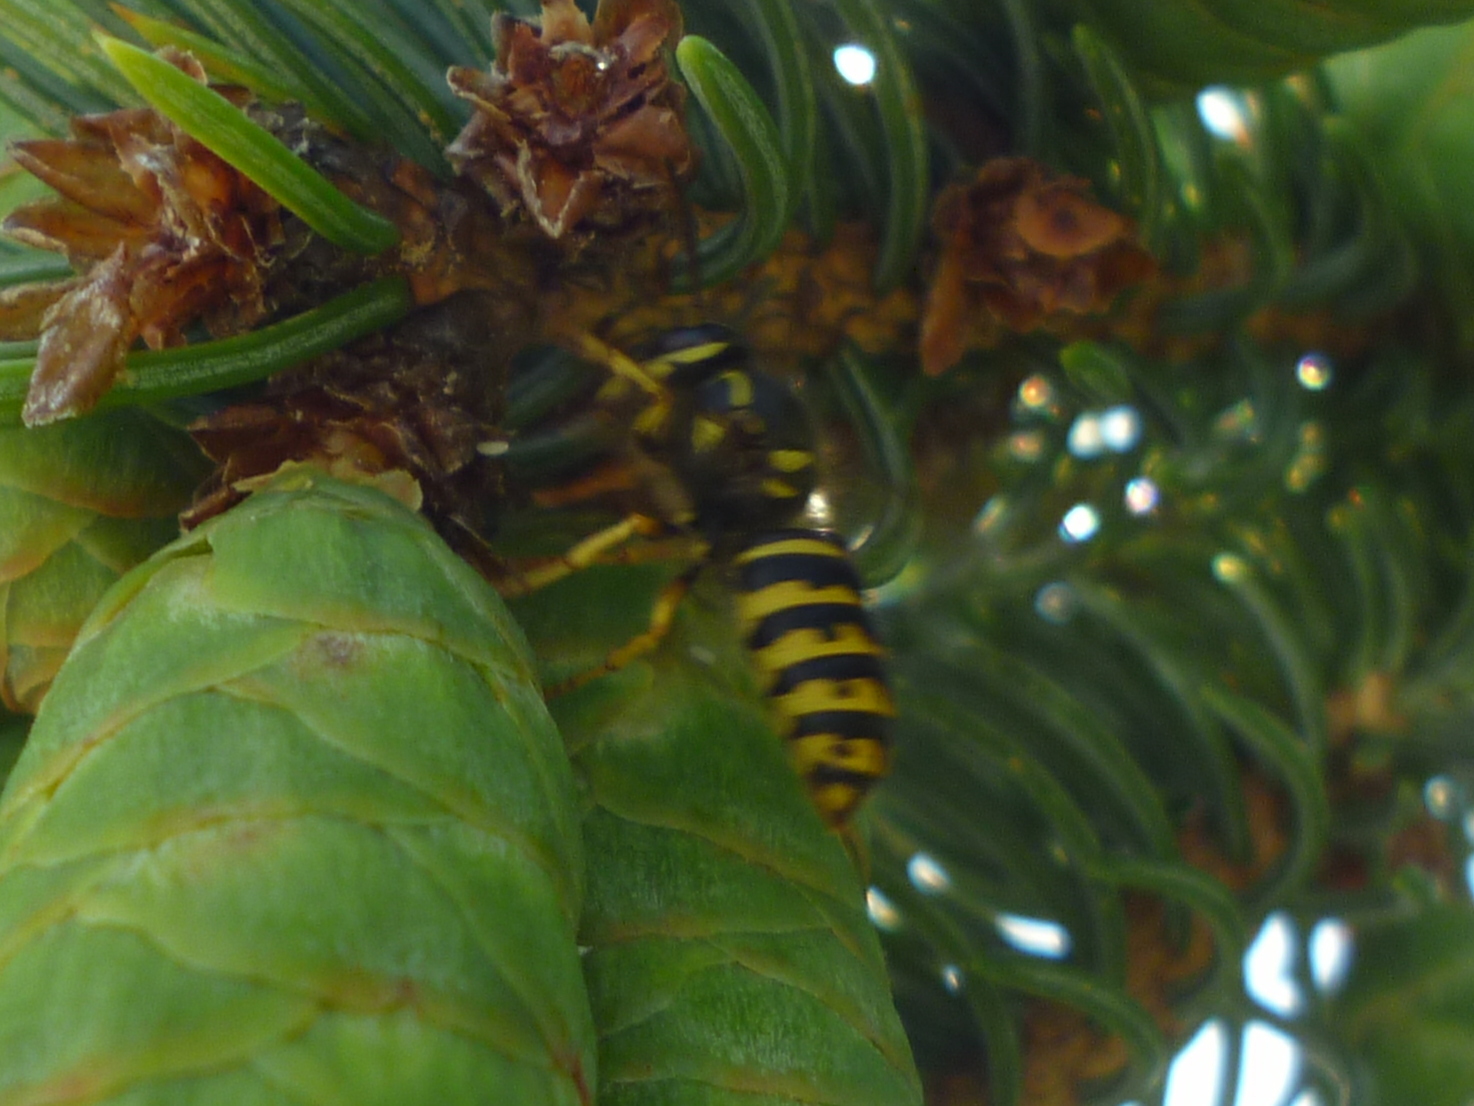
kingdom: Animalia
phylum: Arthropoda
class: Insecta
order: Hymenoptera
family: Vespidae
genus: Dolichovespula
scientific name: Dolichovespula arenaria
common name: Aerial yellowjacket
